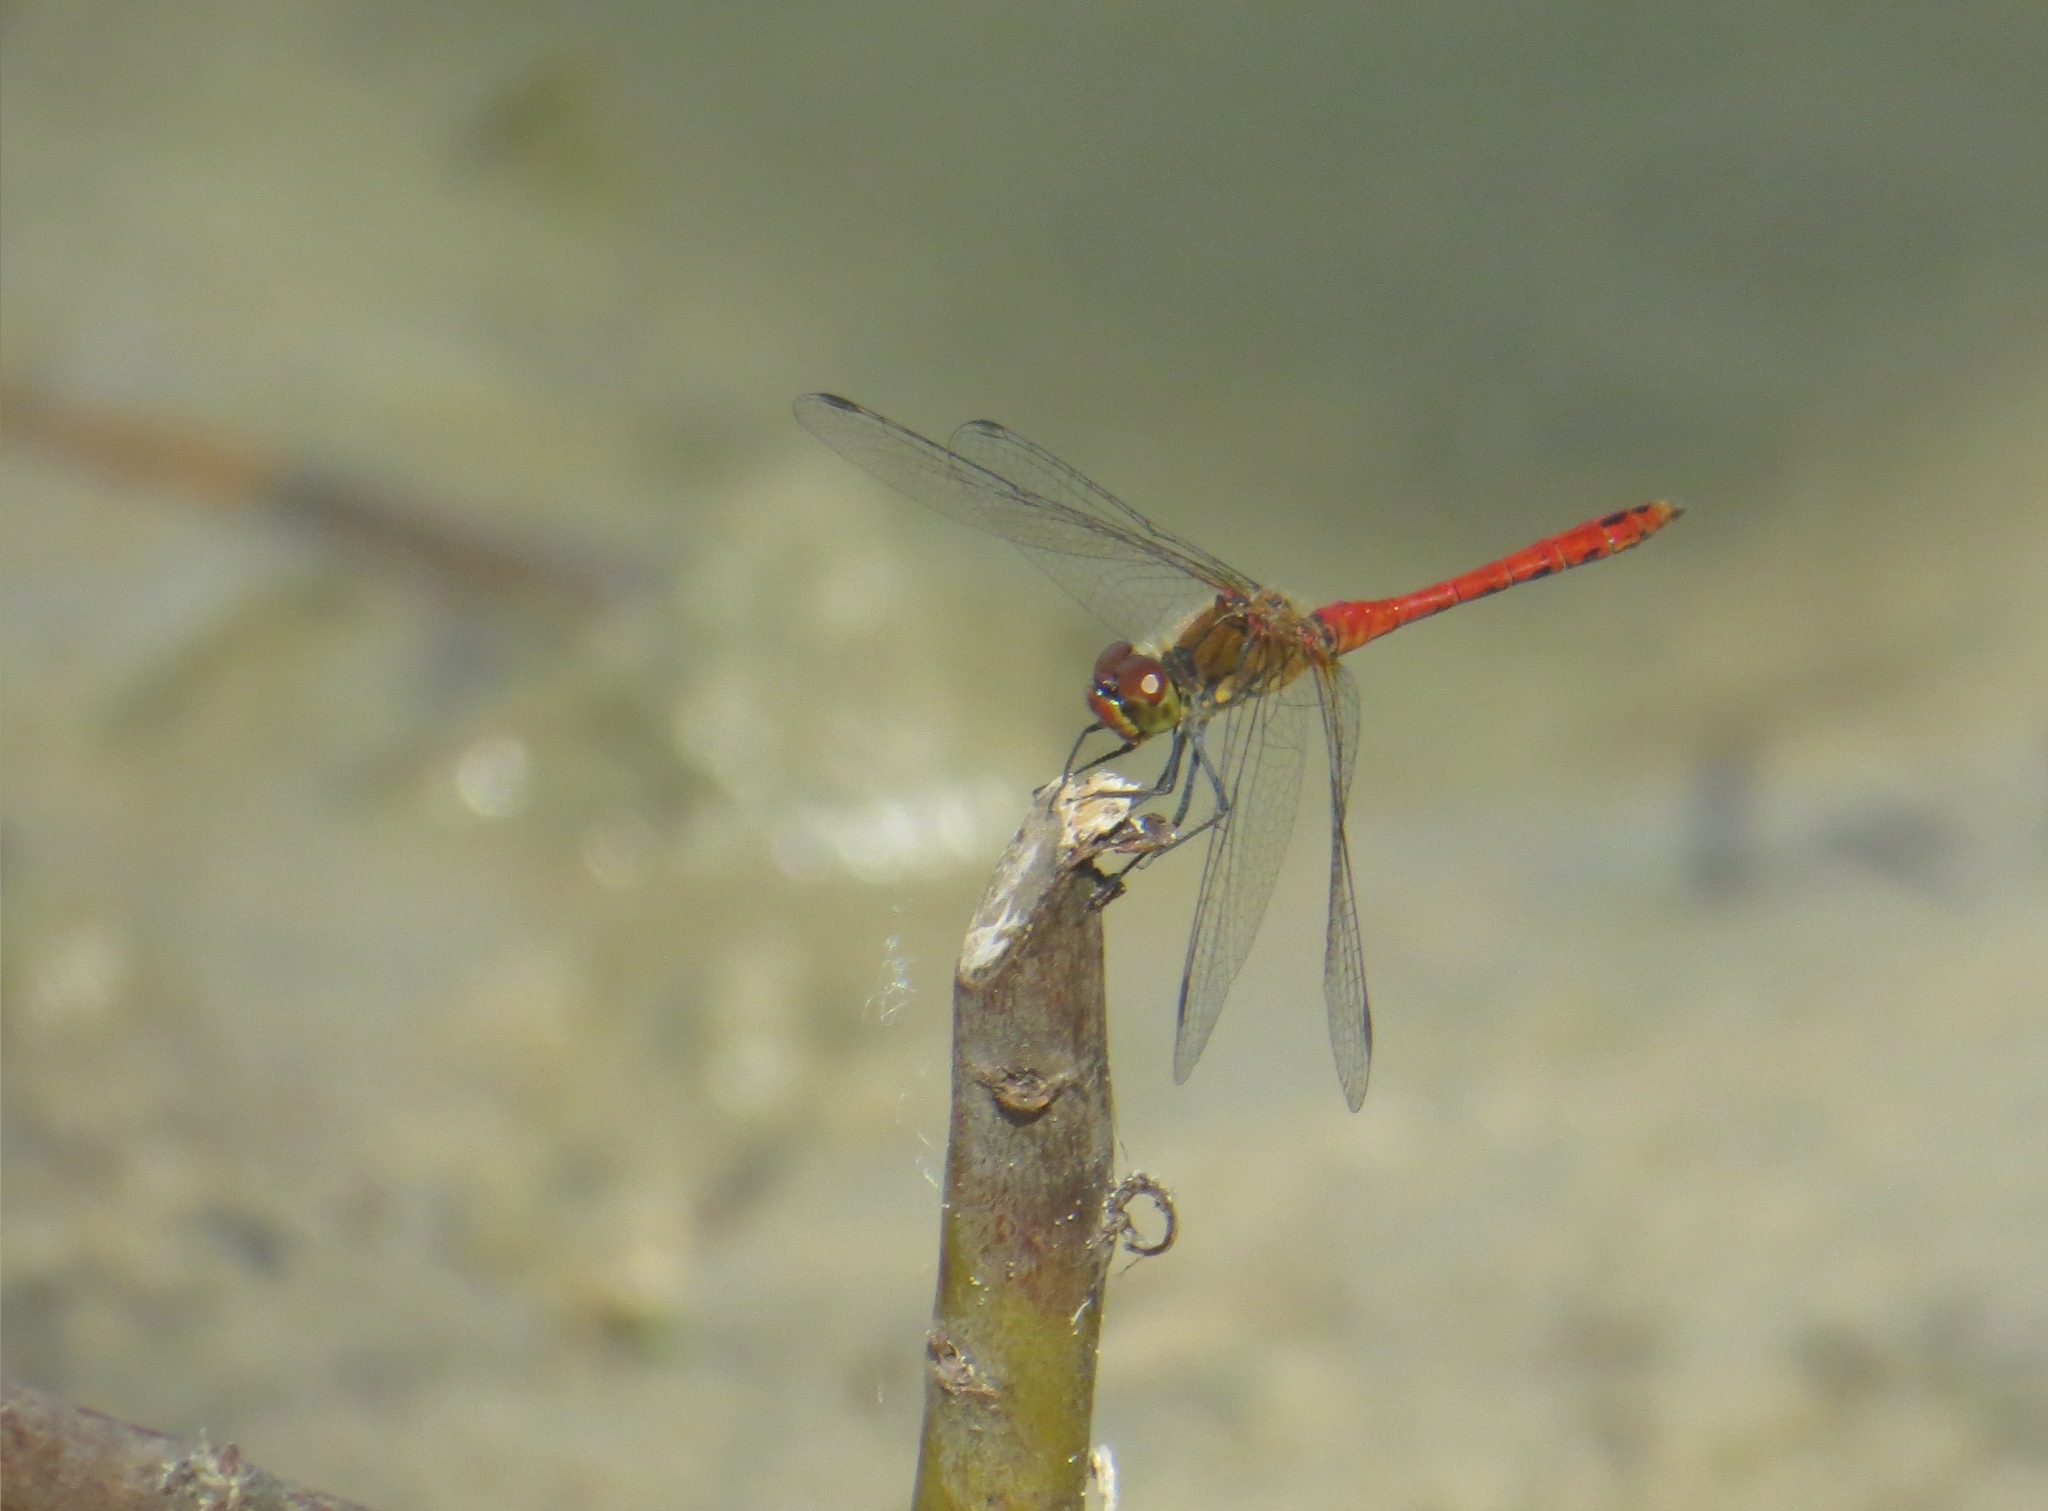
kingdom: Animalia
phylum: Arthropoda
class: Insecta
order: Odonata
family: Libellulidae
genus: Sympetrum
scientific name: Sympetrum sanguineum
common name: Ruddy darter
